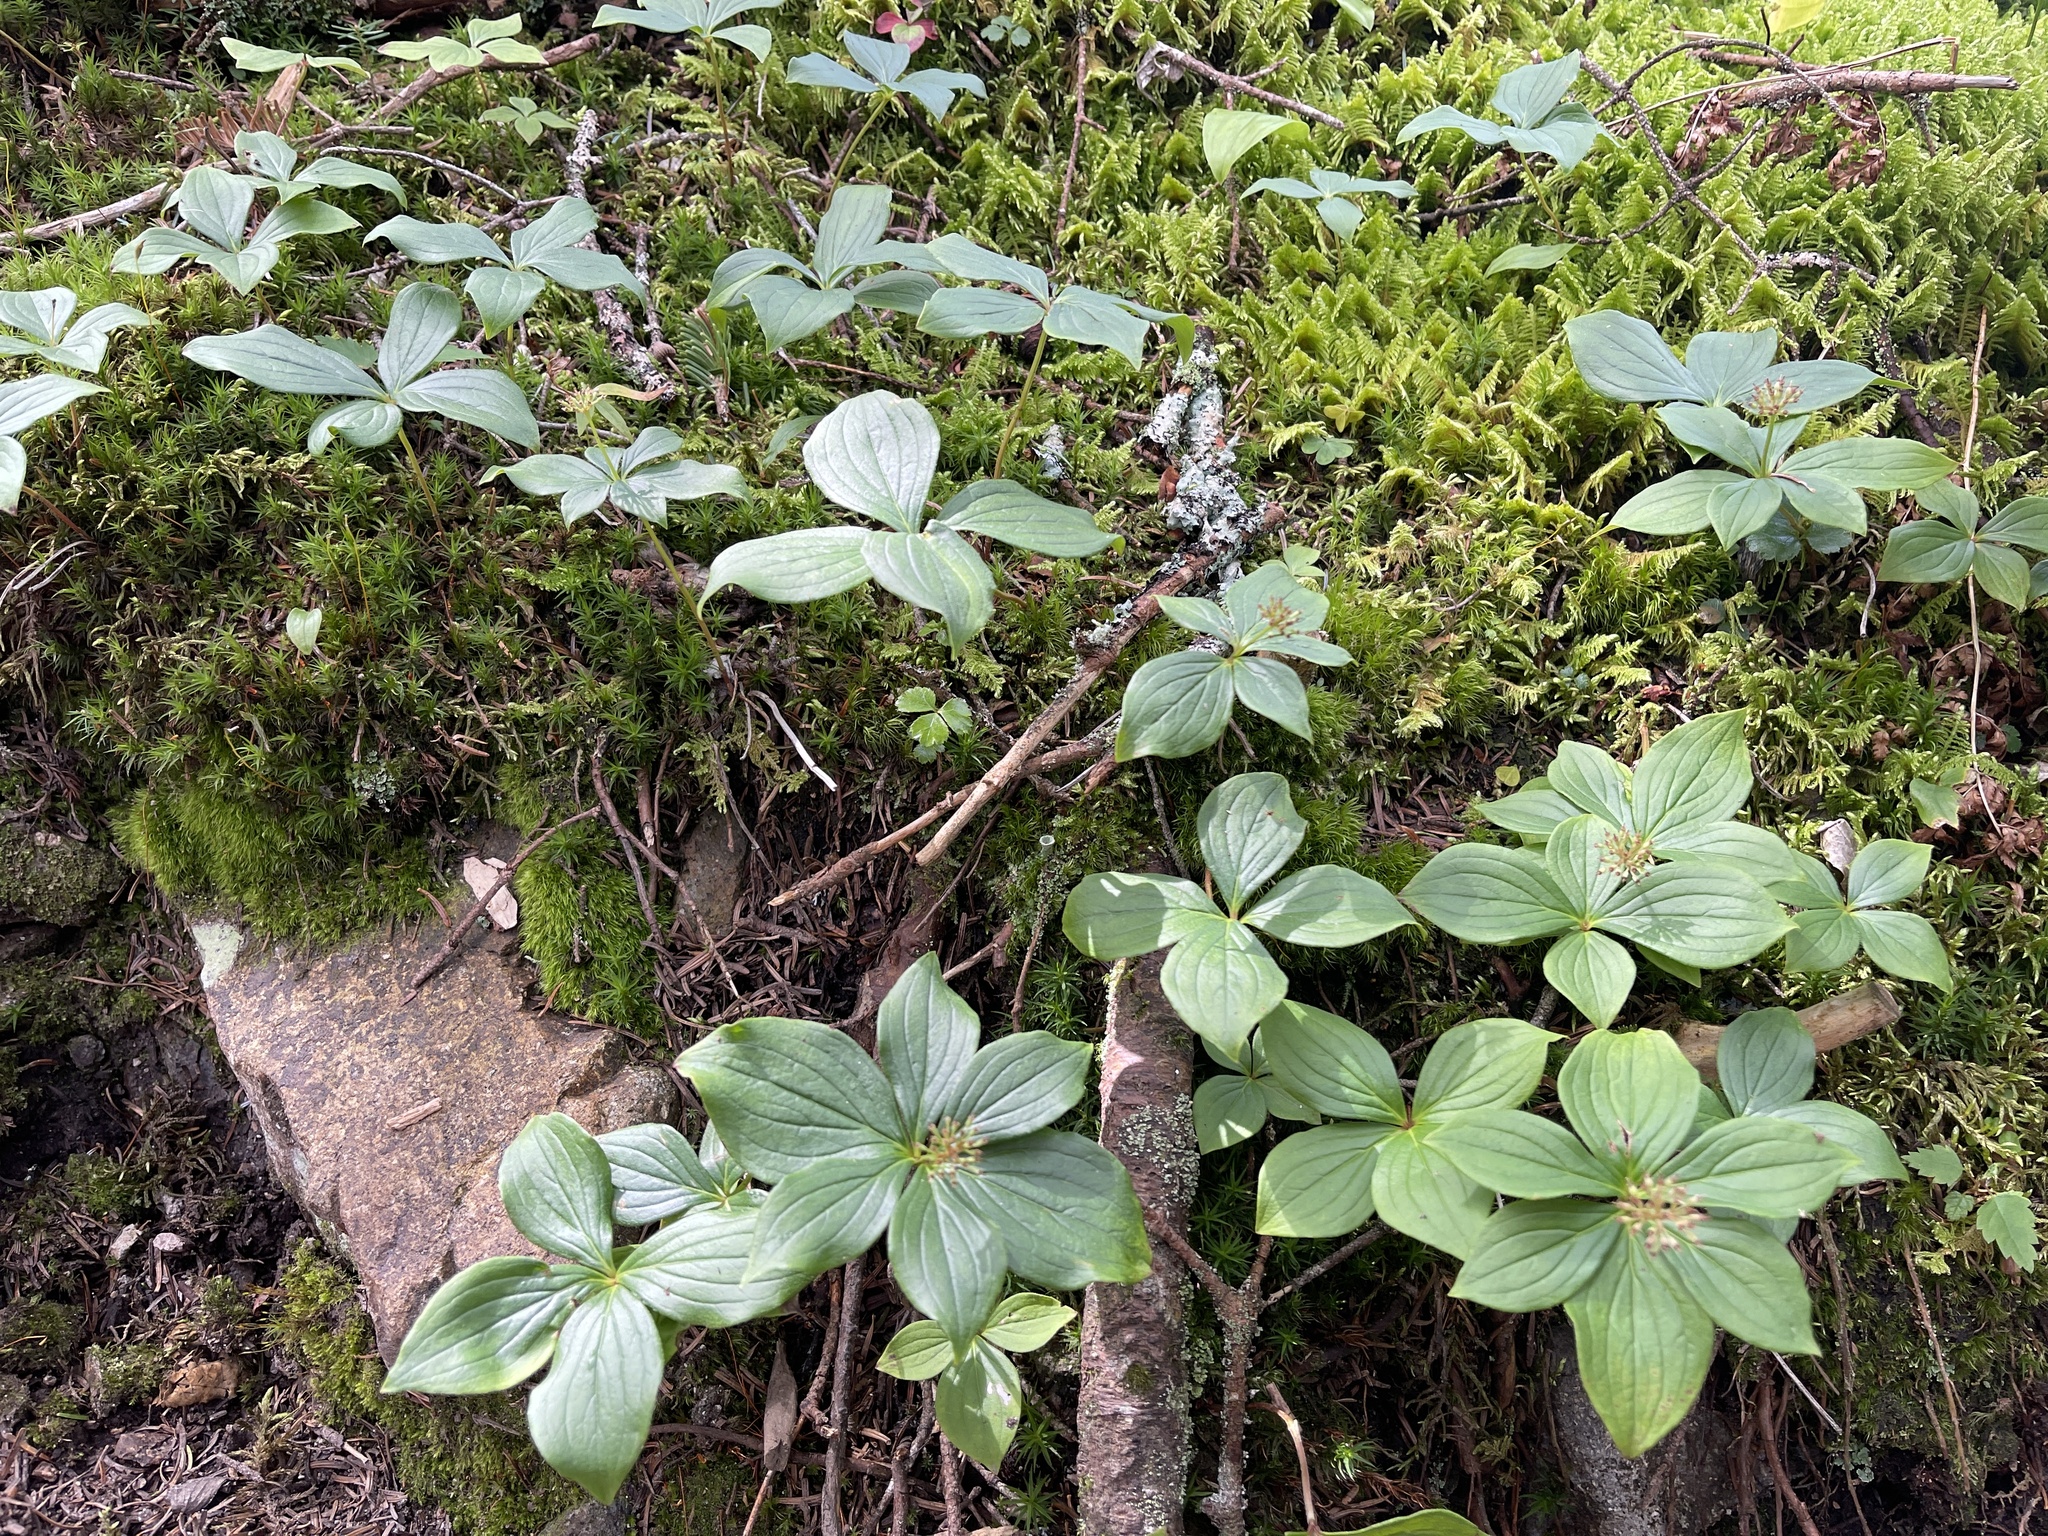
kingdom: Plantae
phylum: Tracheophyta
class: Magnoliopsida
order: Cornales
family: Cornaceae
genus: Cornus
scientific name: Cornus canadensis
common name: Creeping dogwood
